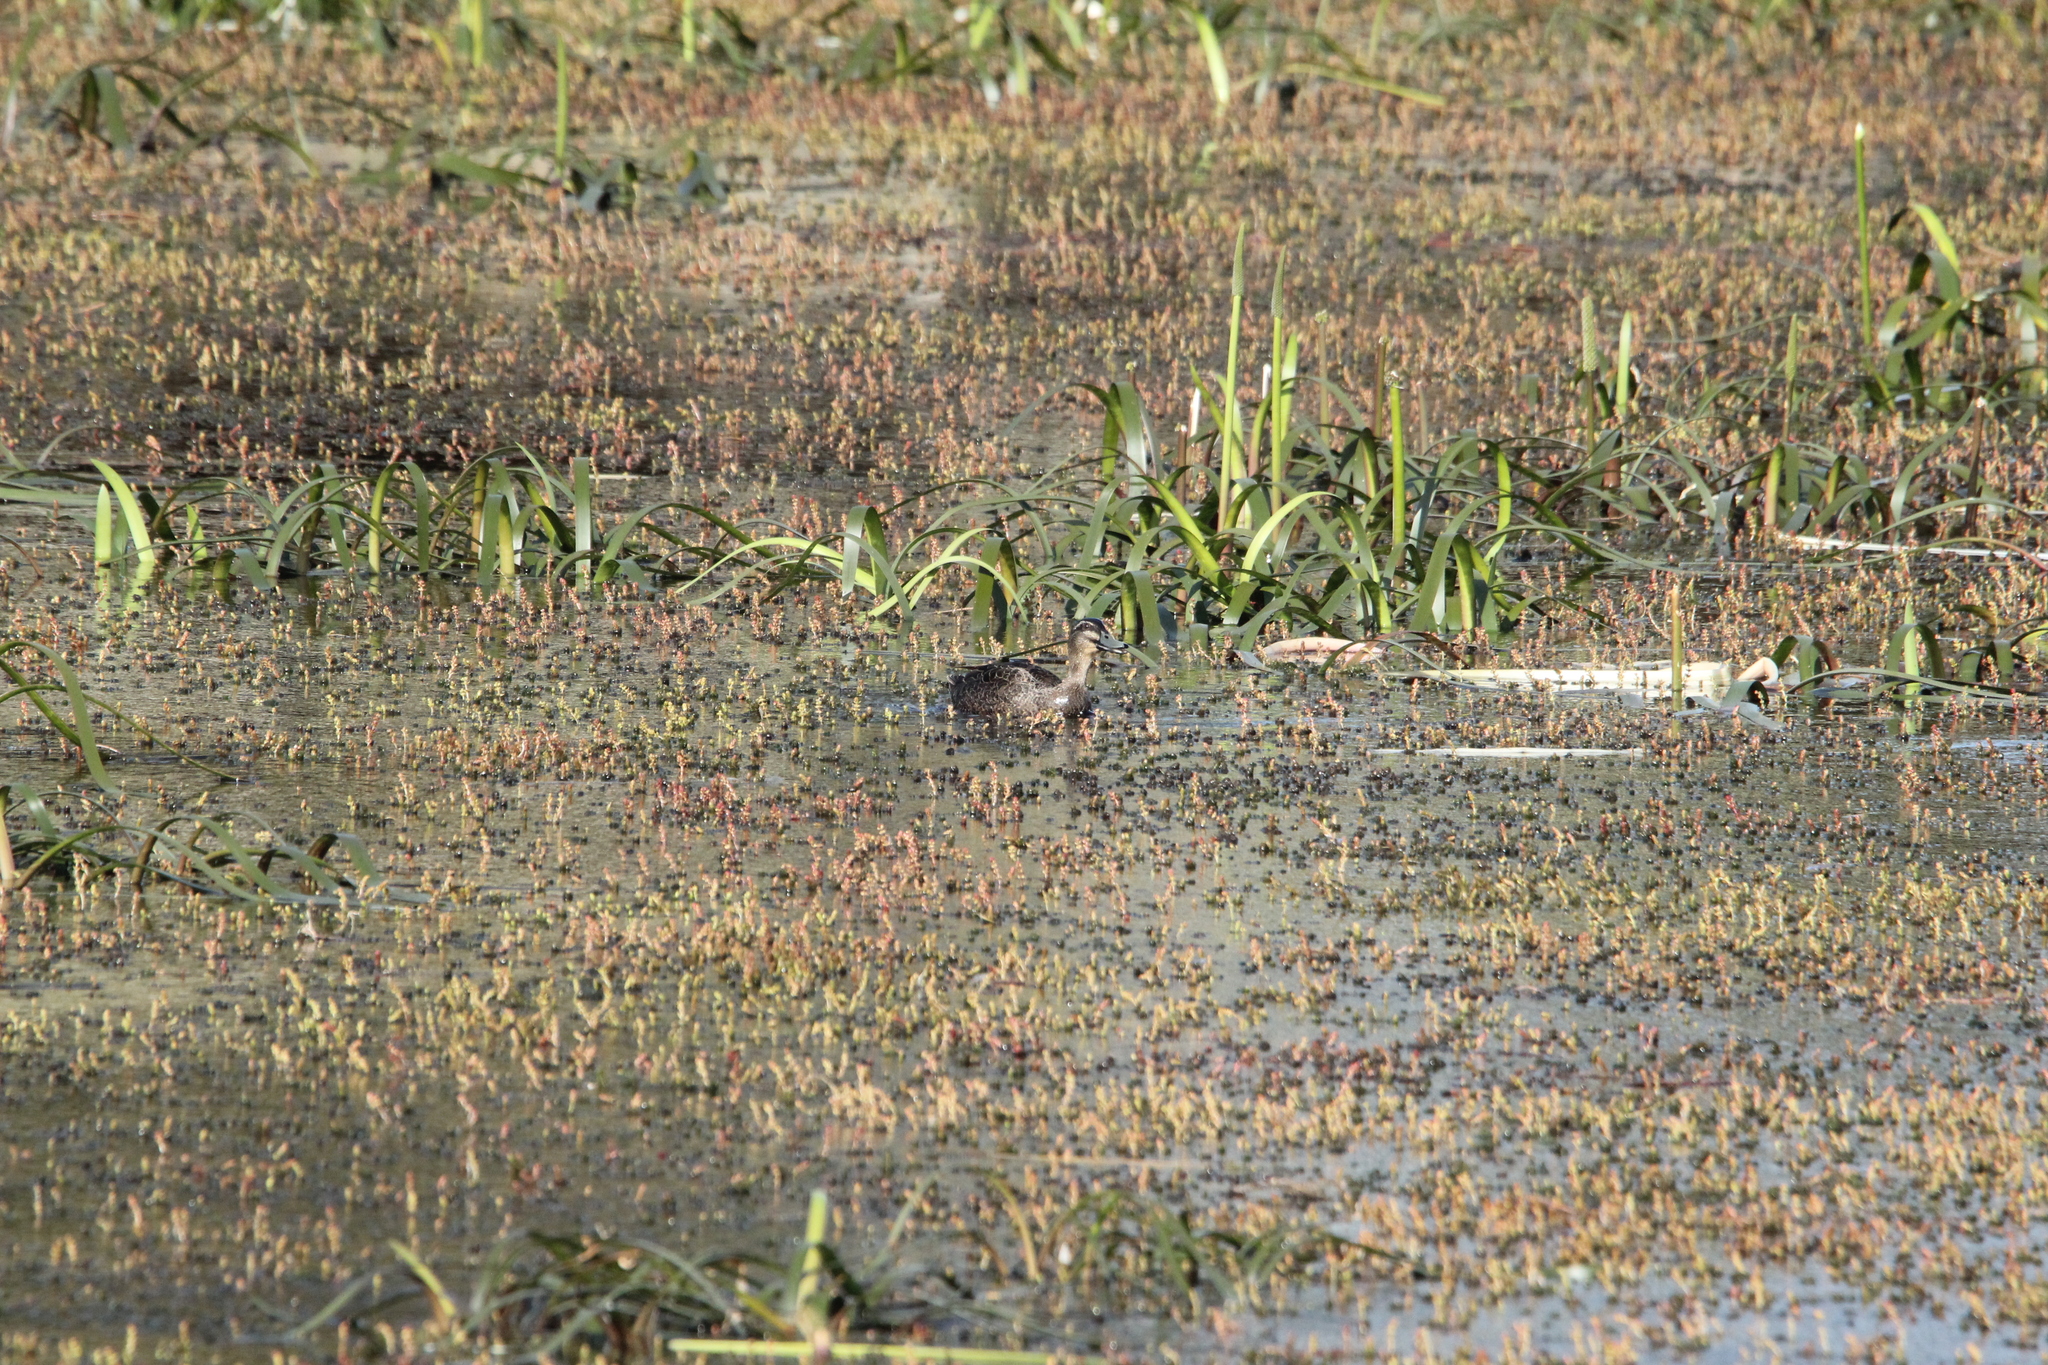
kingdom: Animalia
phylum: Chordata
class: Aves
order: Anseriformes
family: Anatidae
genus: Anas
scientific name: Anas
